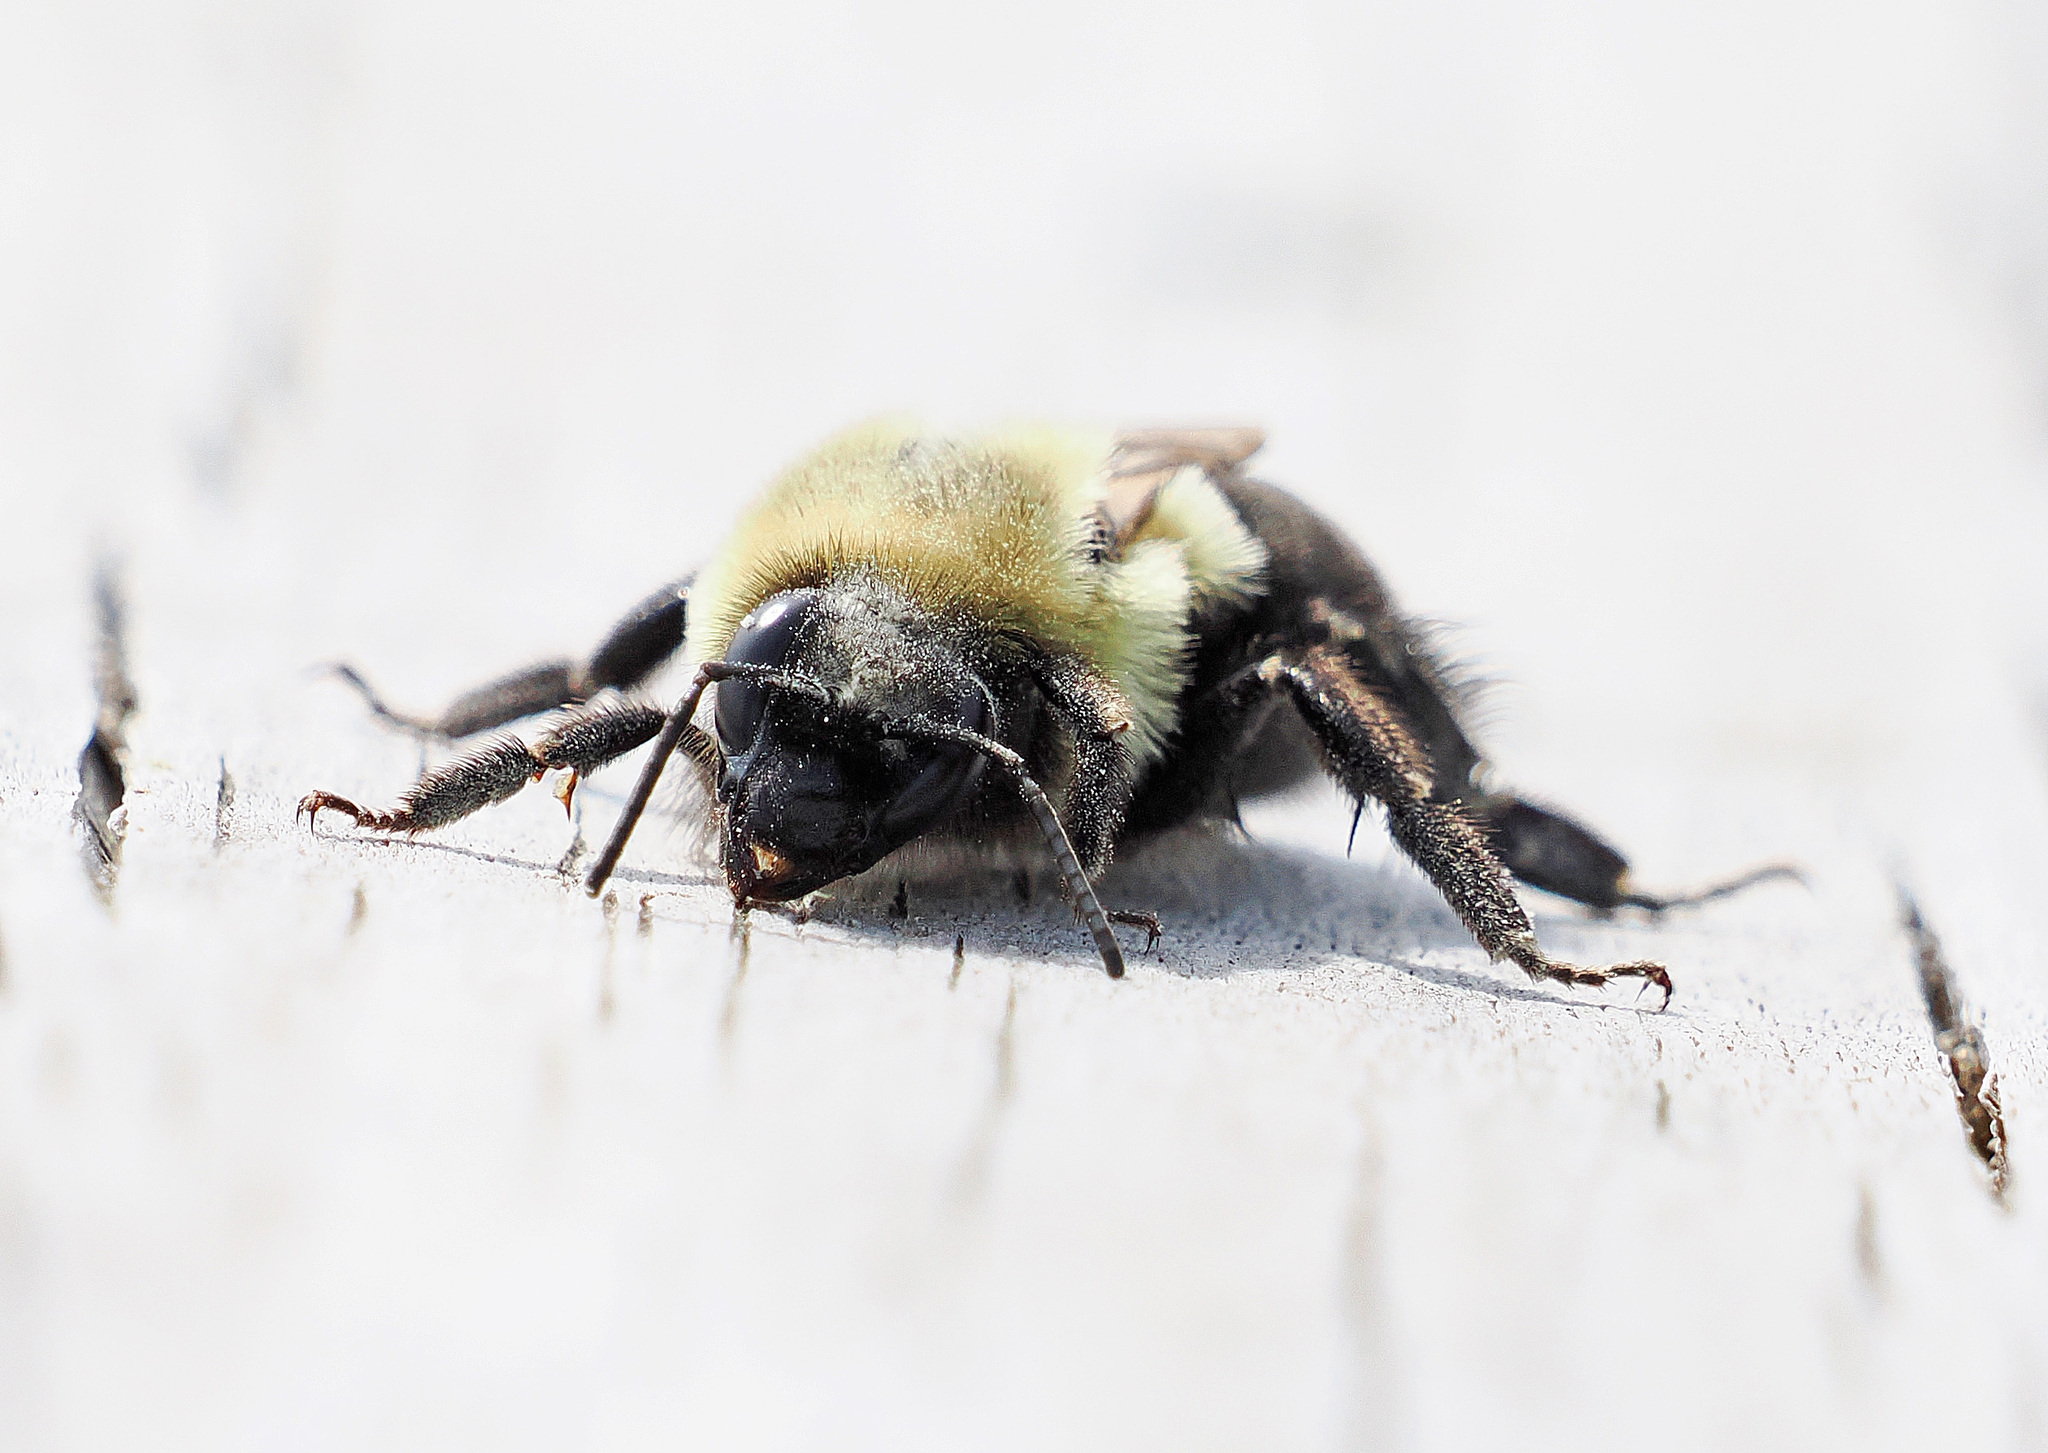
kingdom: Animalia
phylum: Arthropoda
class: Insecta
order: Hymenoptera
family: Apidae
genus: Bombus
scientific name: Bombus impatiens
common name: Common eastern bumble bee
